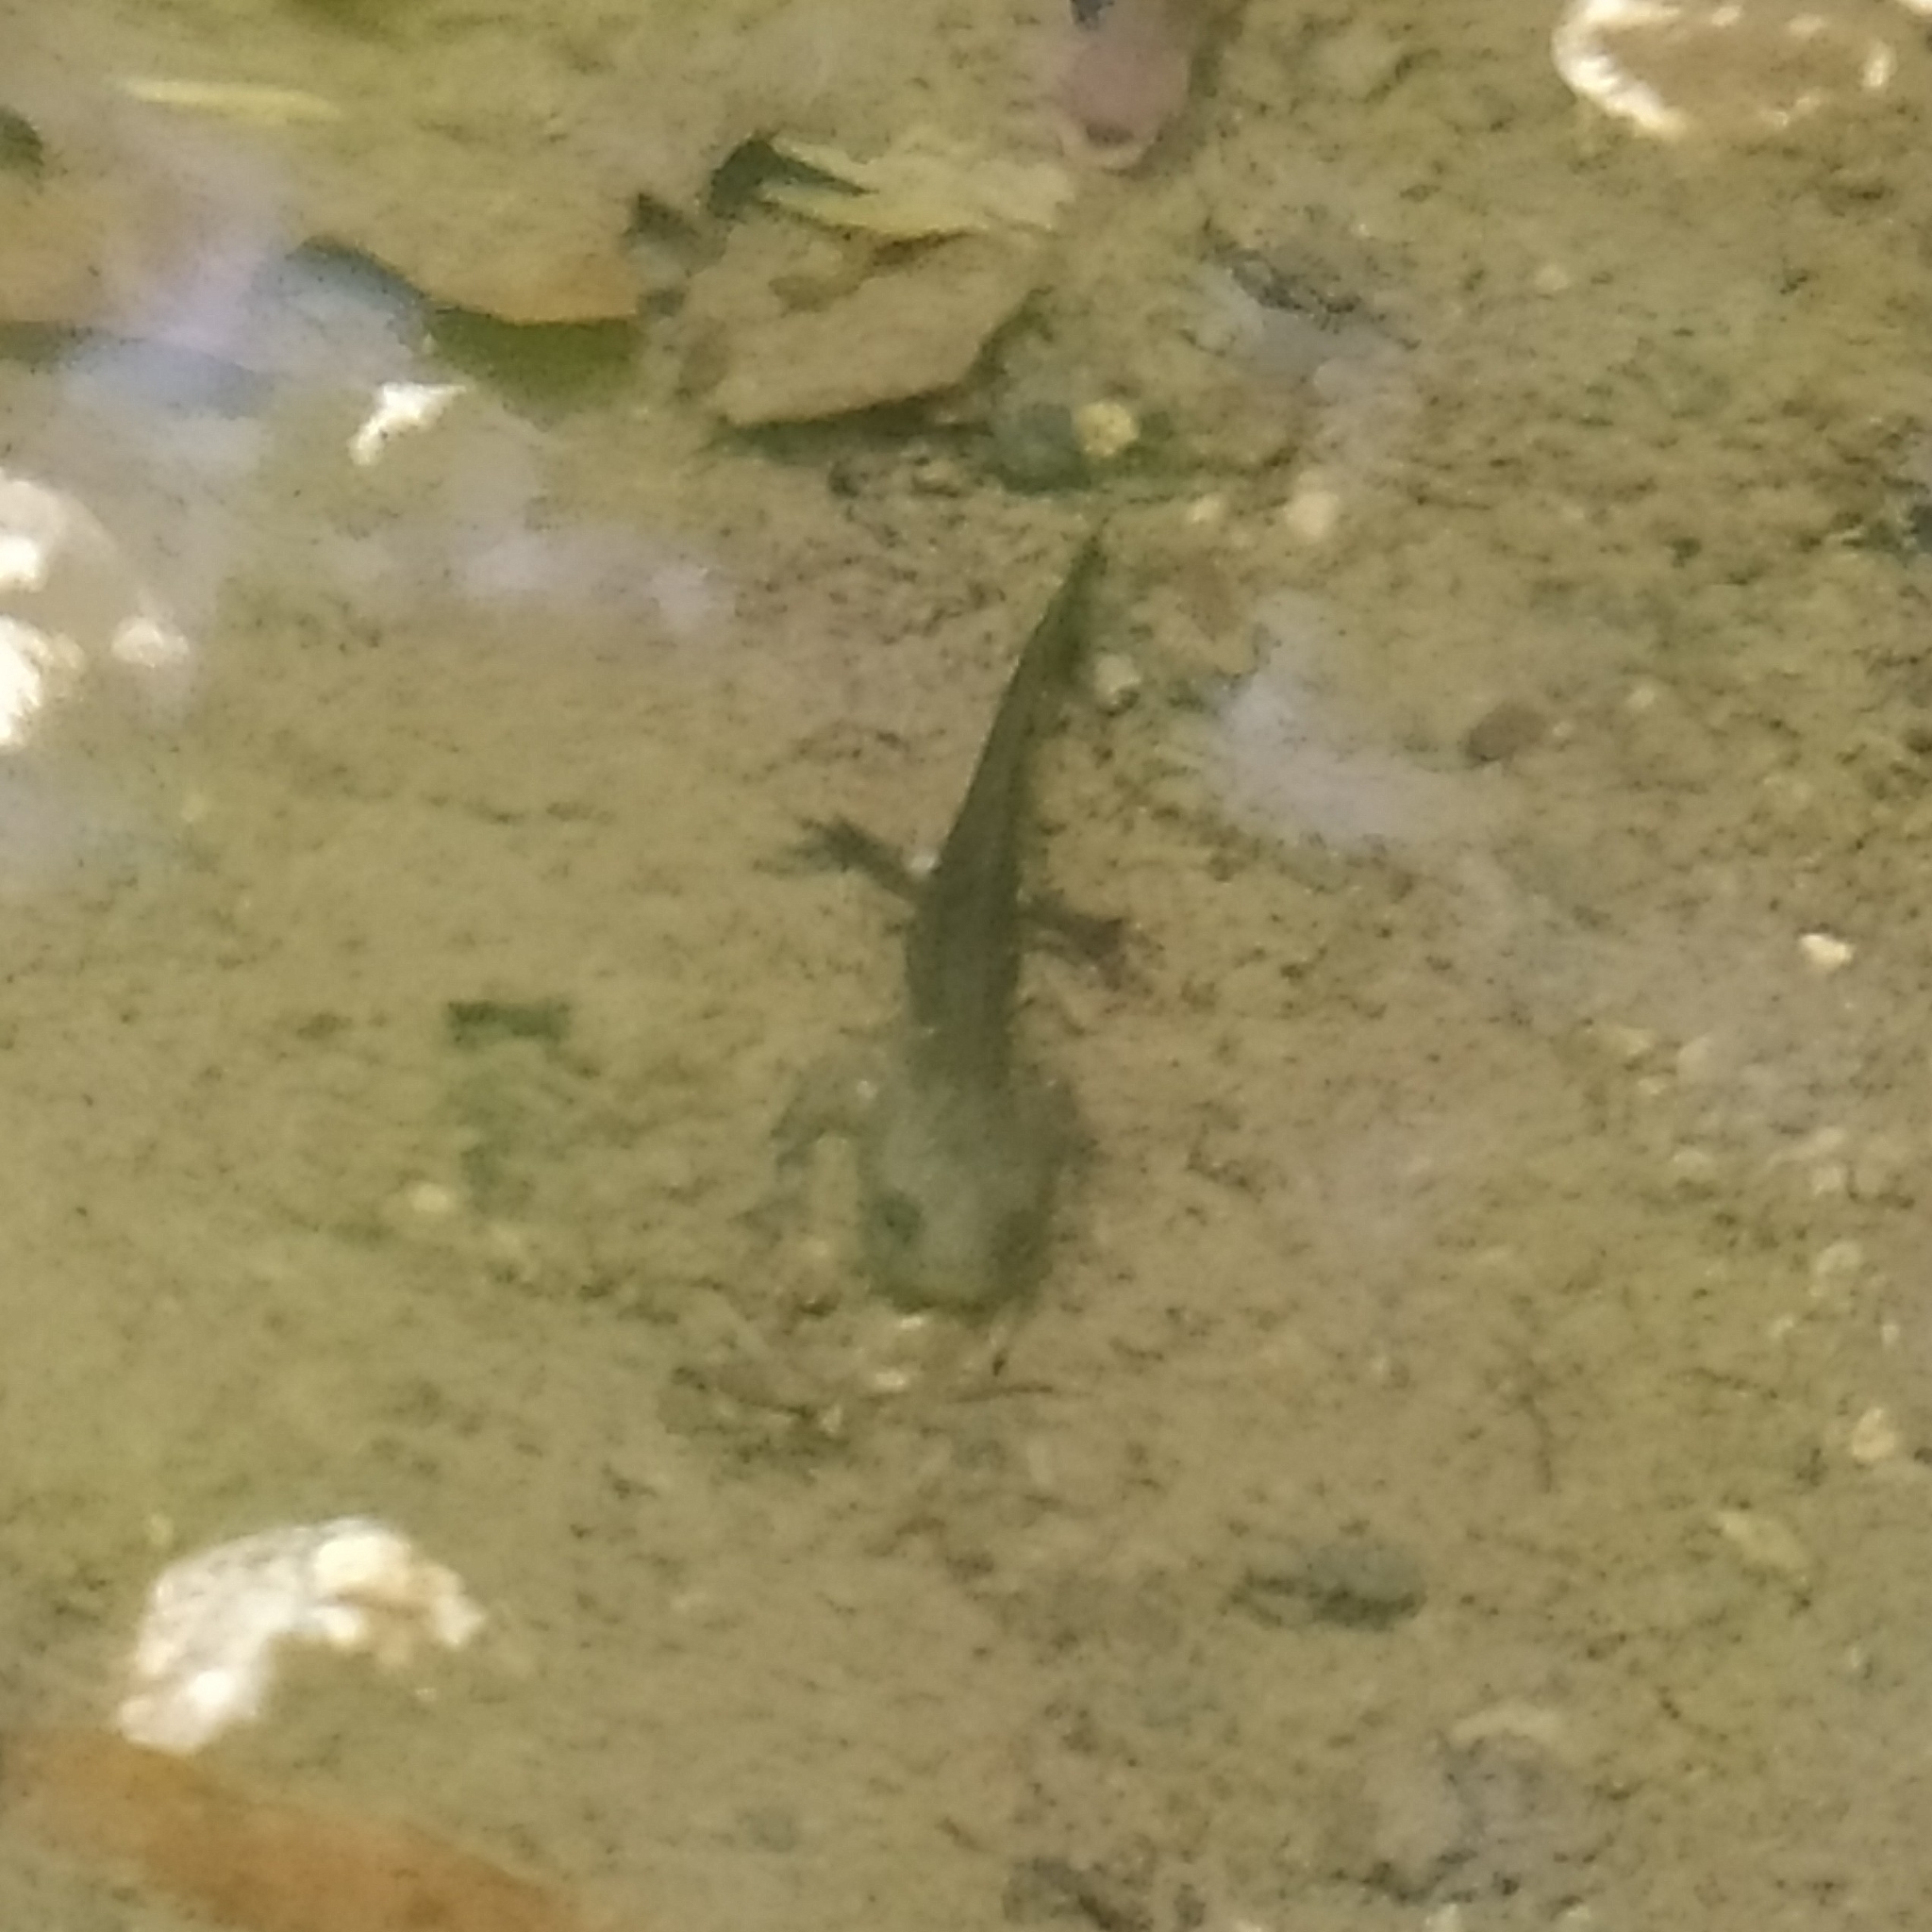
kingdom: Animalia
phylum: Chordata
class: Amphibia
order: Caudata
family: Salamandridae
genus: Salamandra
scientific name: Salamandra salamandra
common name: Fire salamander
